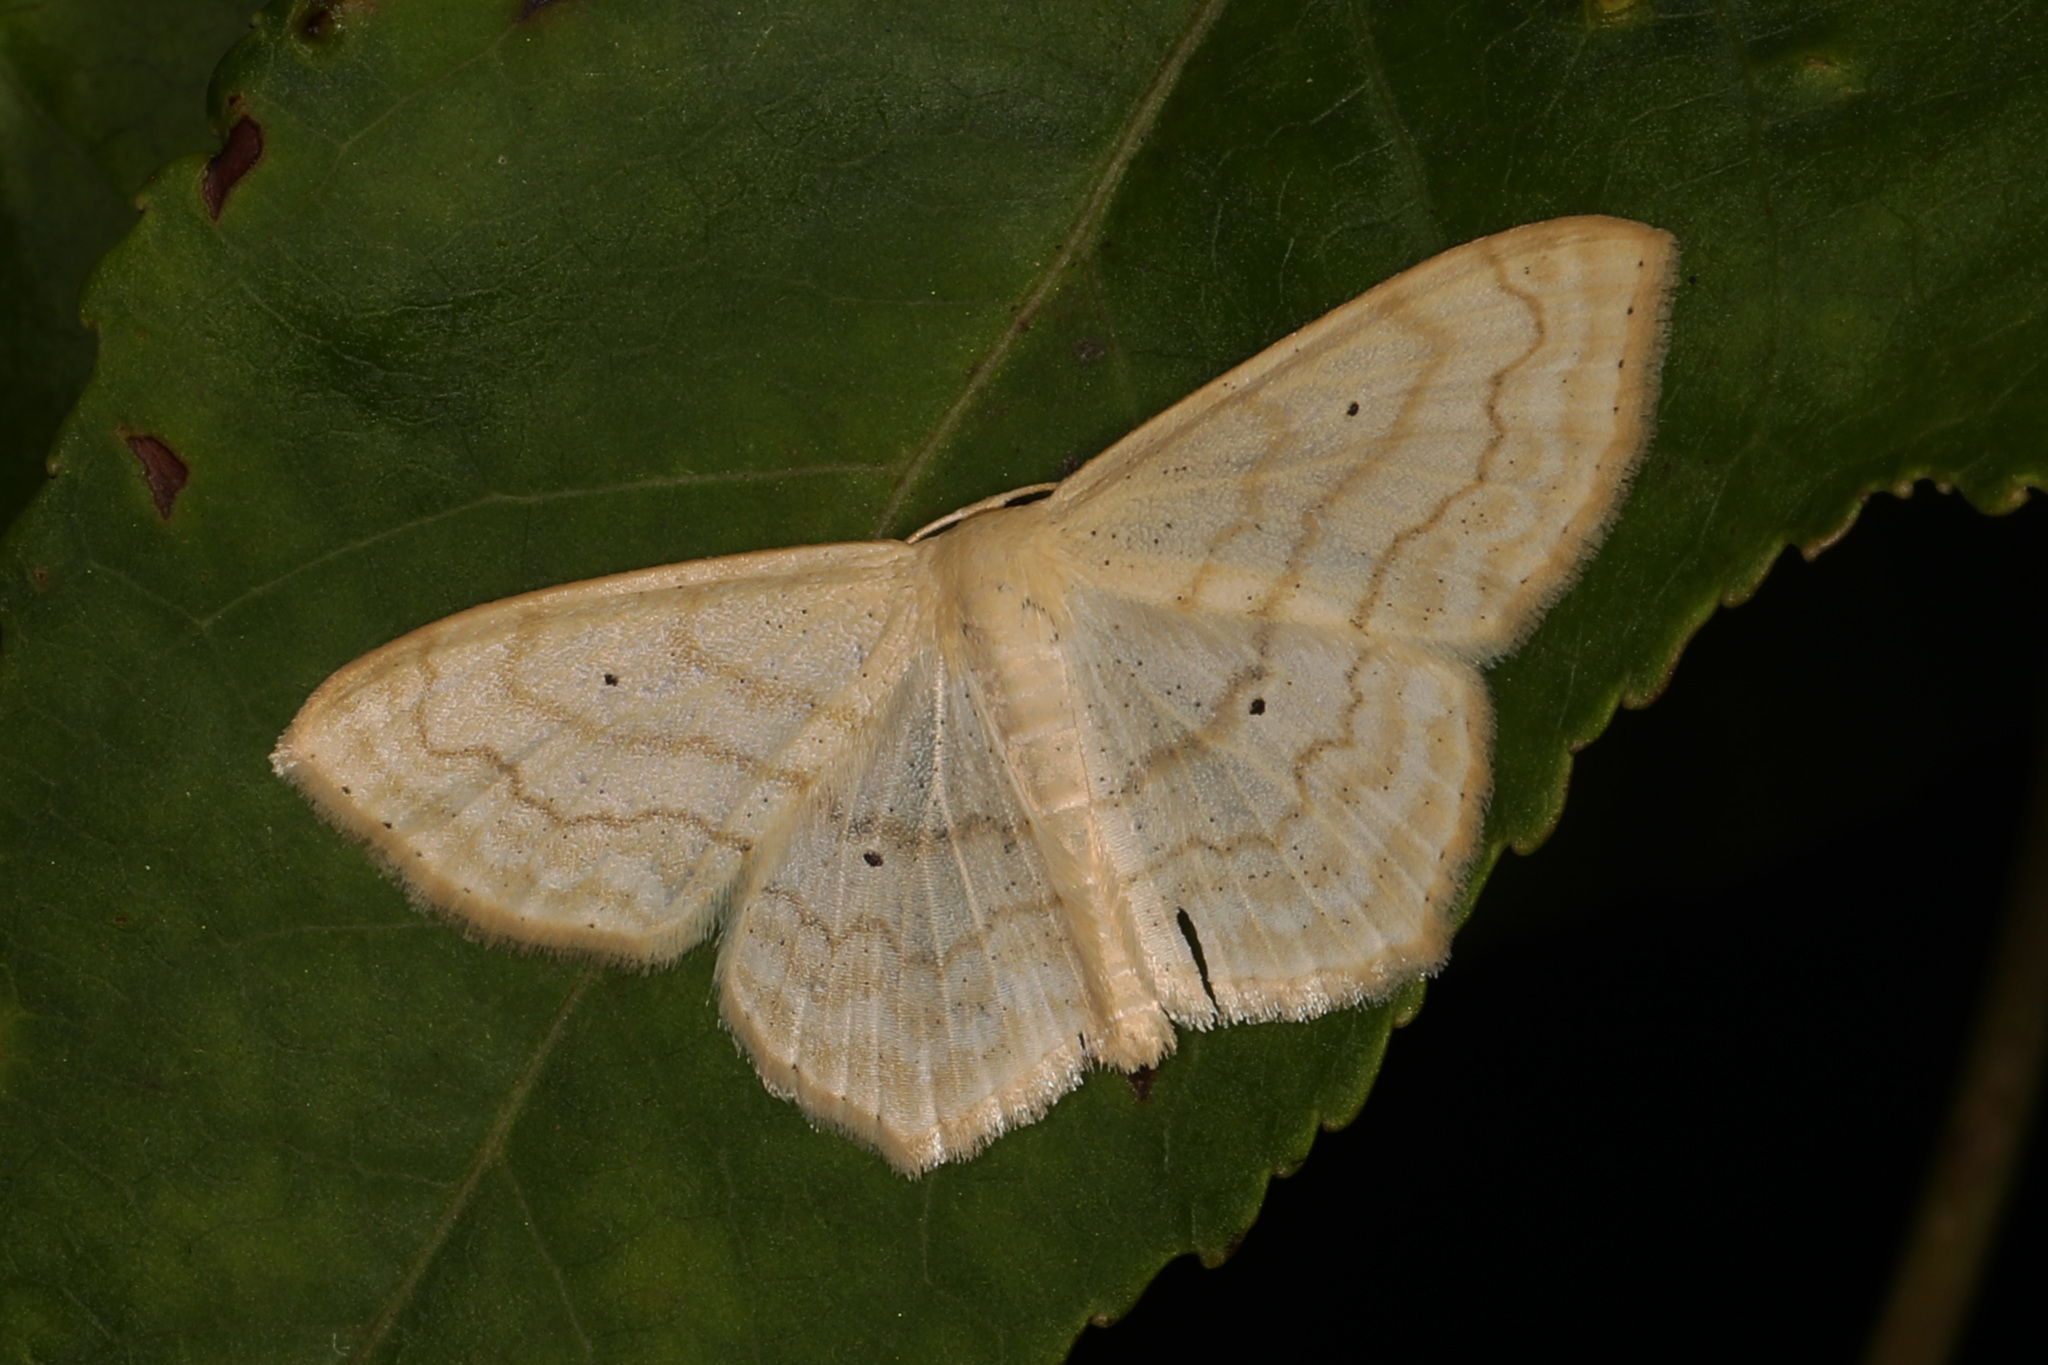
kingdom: Animalia
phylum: Arthropoda
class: Insecta
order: Lepidoptera
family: Geometridae
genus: Scopula
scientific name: Scopula limboundata
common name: Large lace border
